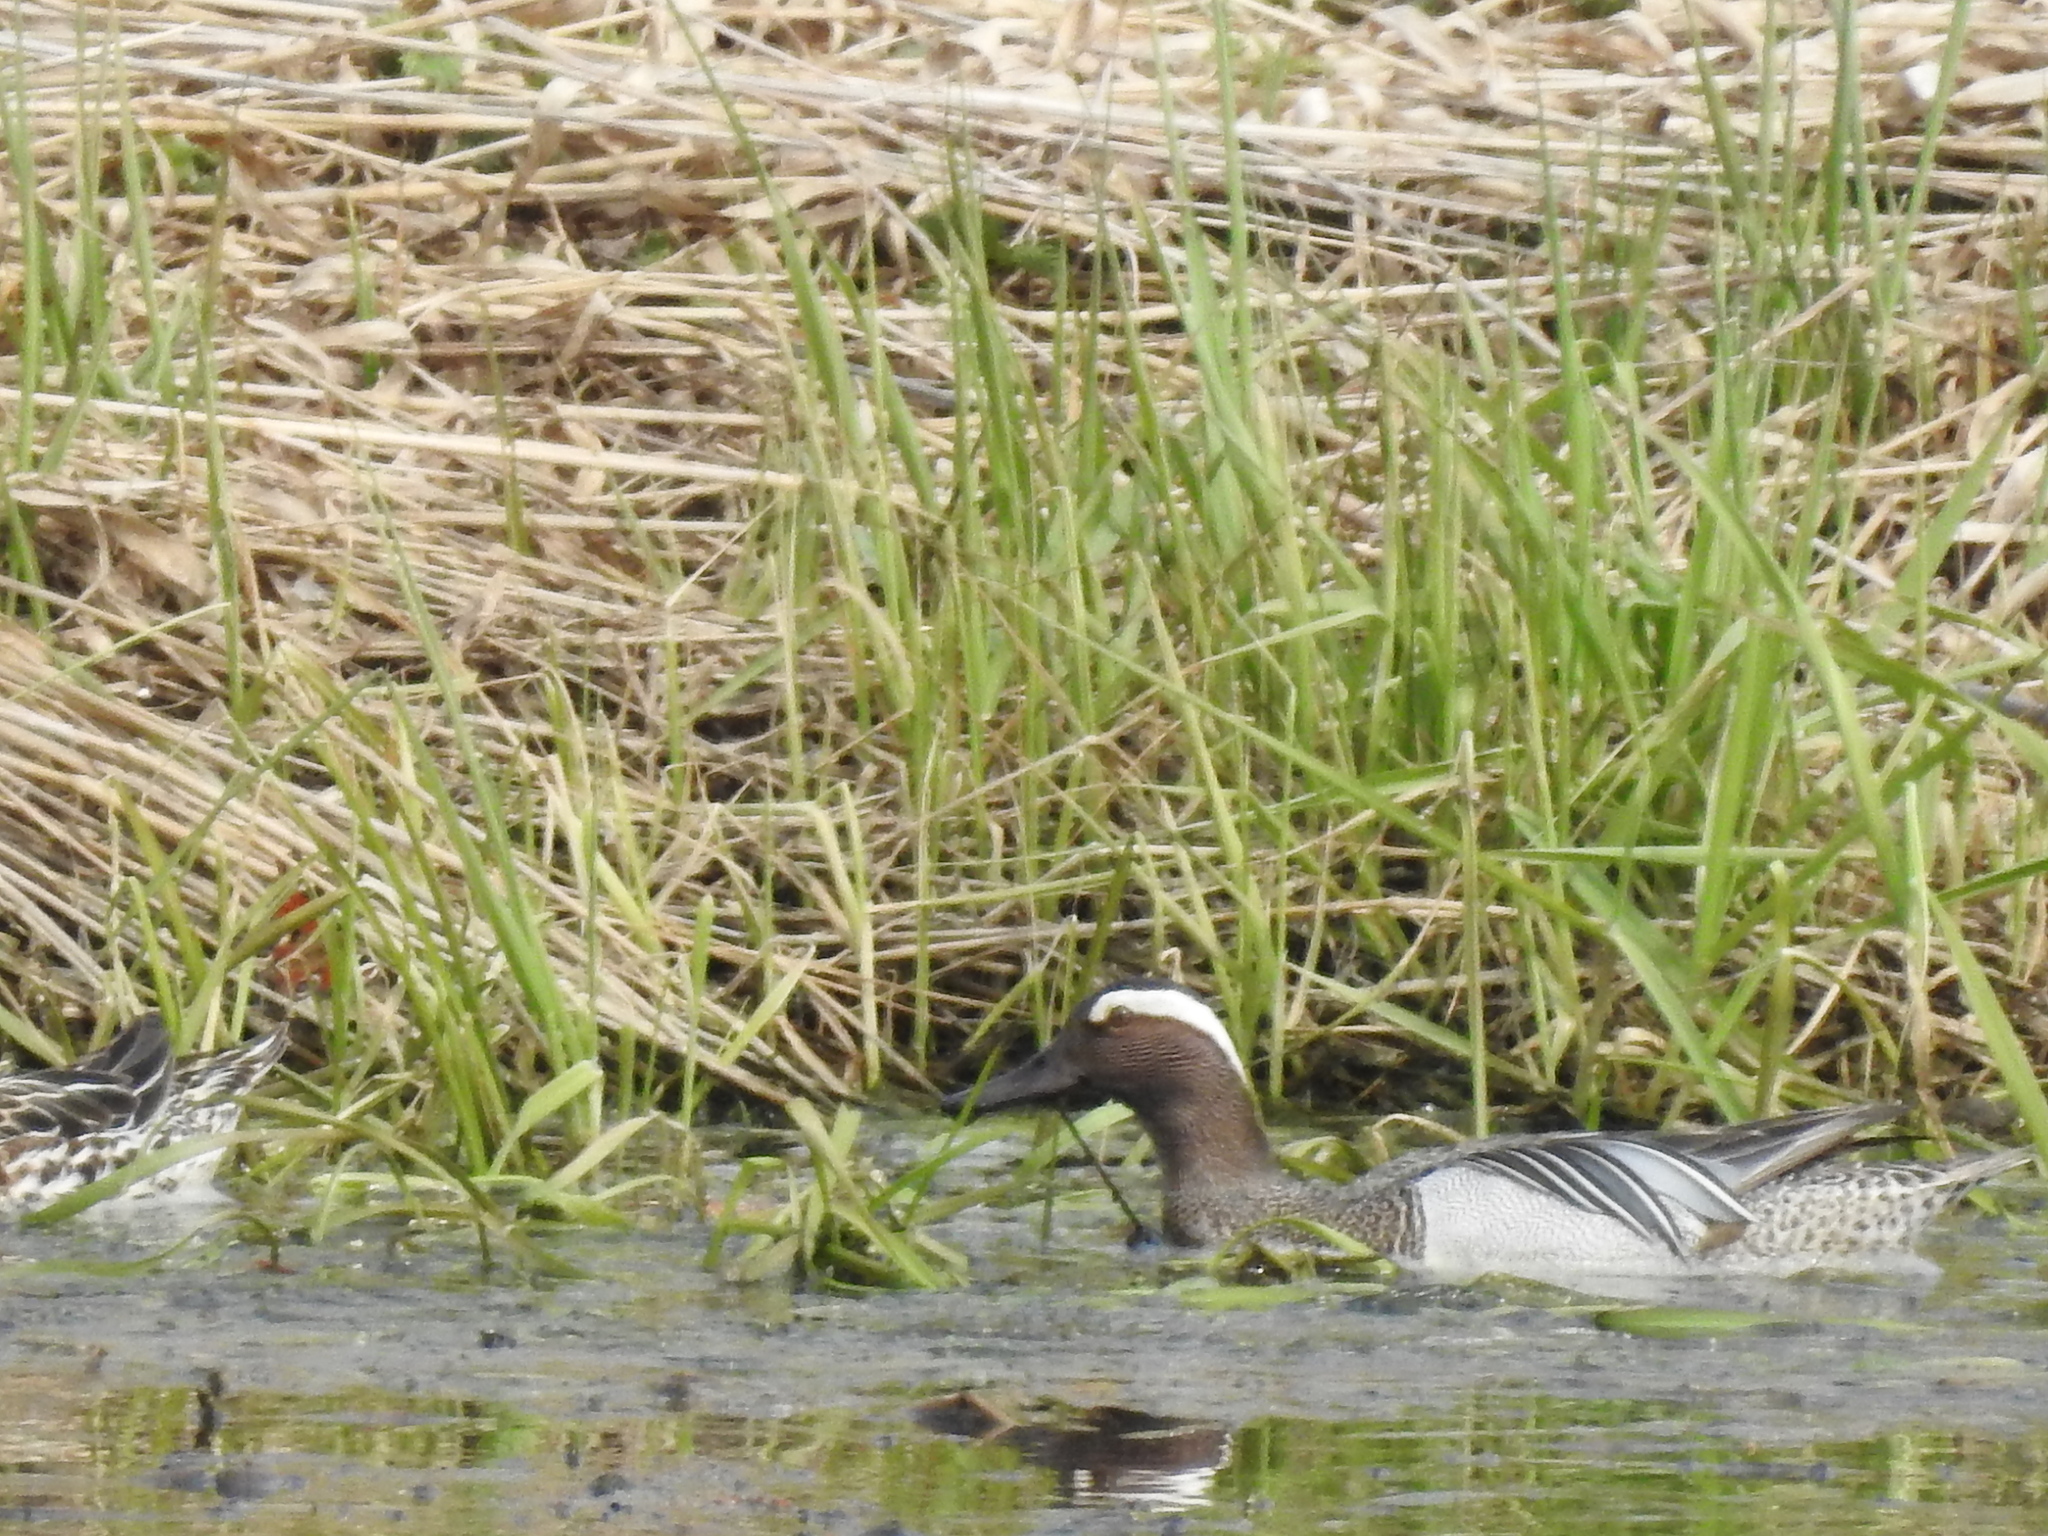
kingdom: Animalia
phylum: Chordata
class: Aves
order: Anseriformes
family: Anatidae
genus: Spatula
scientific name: Spatula querquedula
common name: Garganey
